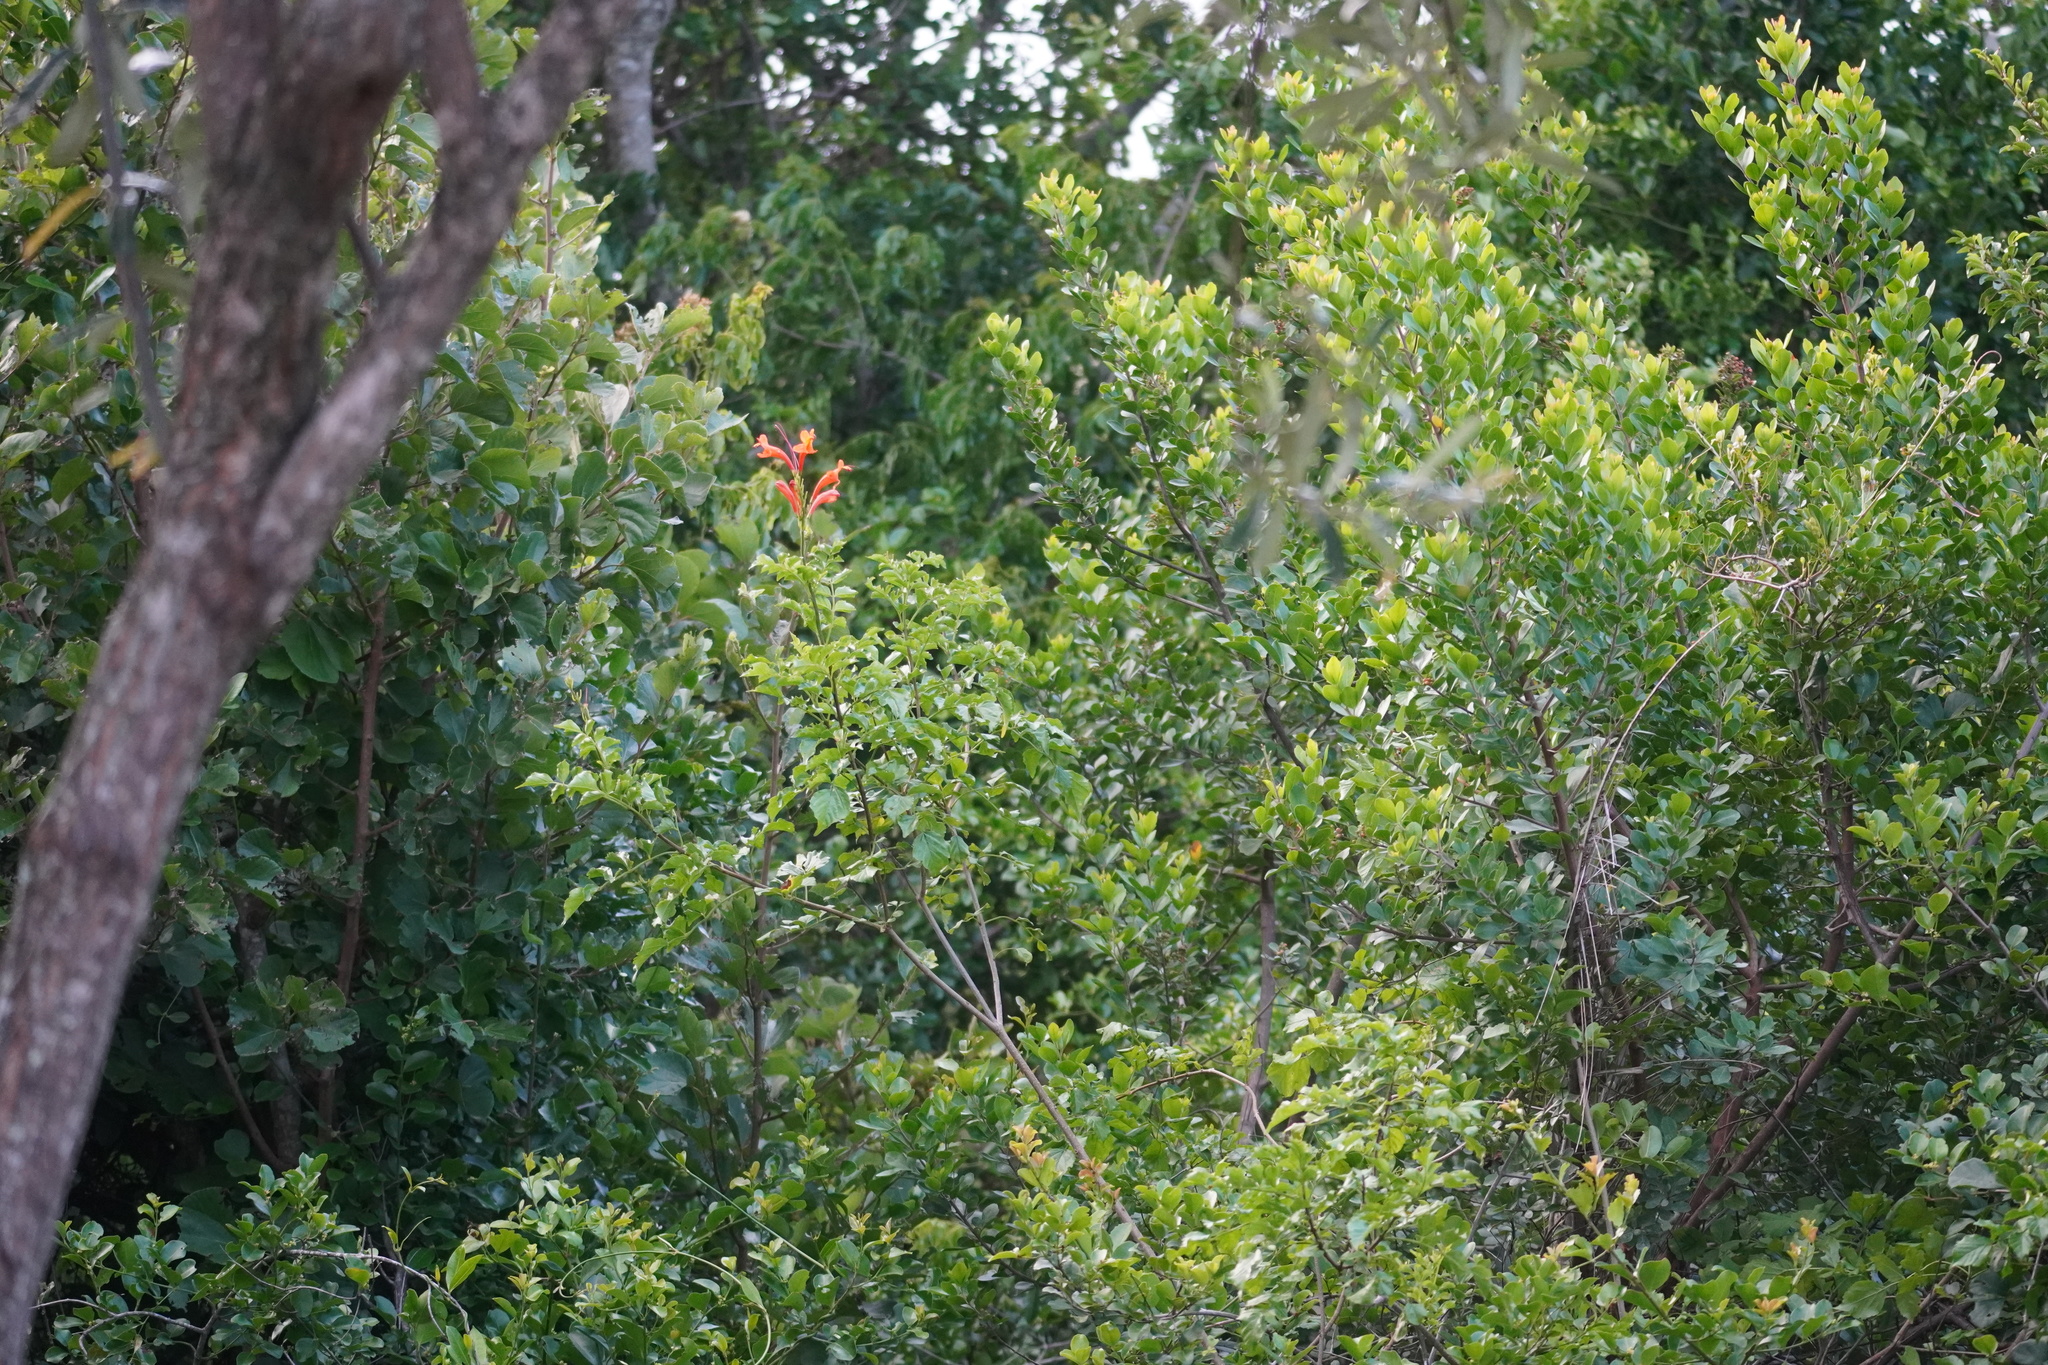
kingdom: Plantae
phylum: Tracheophyta
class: Magnoliopsida
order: Lamiales
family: Bignoniaceae
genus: Tecomaria
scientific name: Tecomaria capensis
